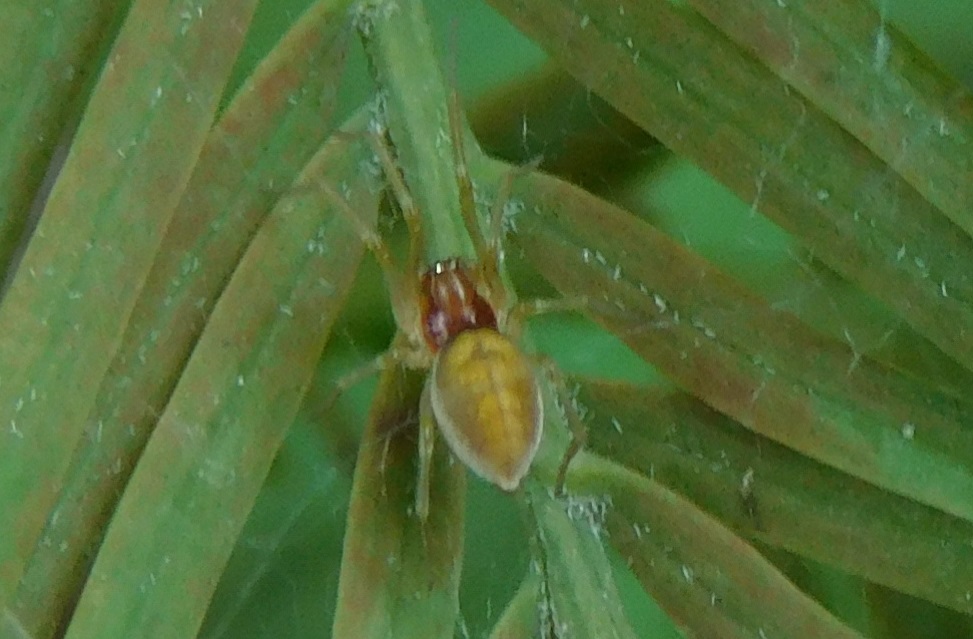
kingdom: Animalia
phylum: Arthropoda
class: Arachnida
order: Araneae
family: Dictynidae
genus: Emblyna
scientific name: Emblyna florens
